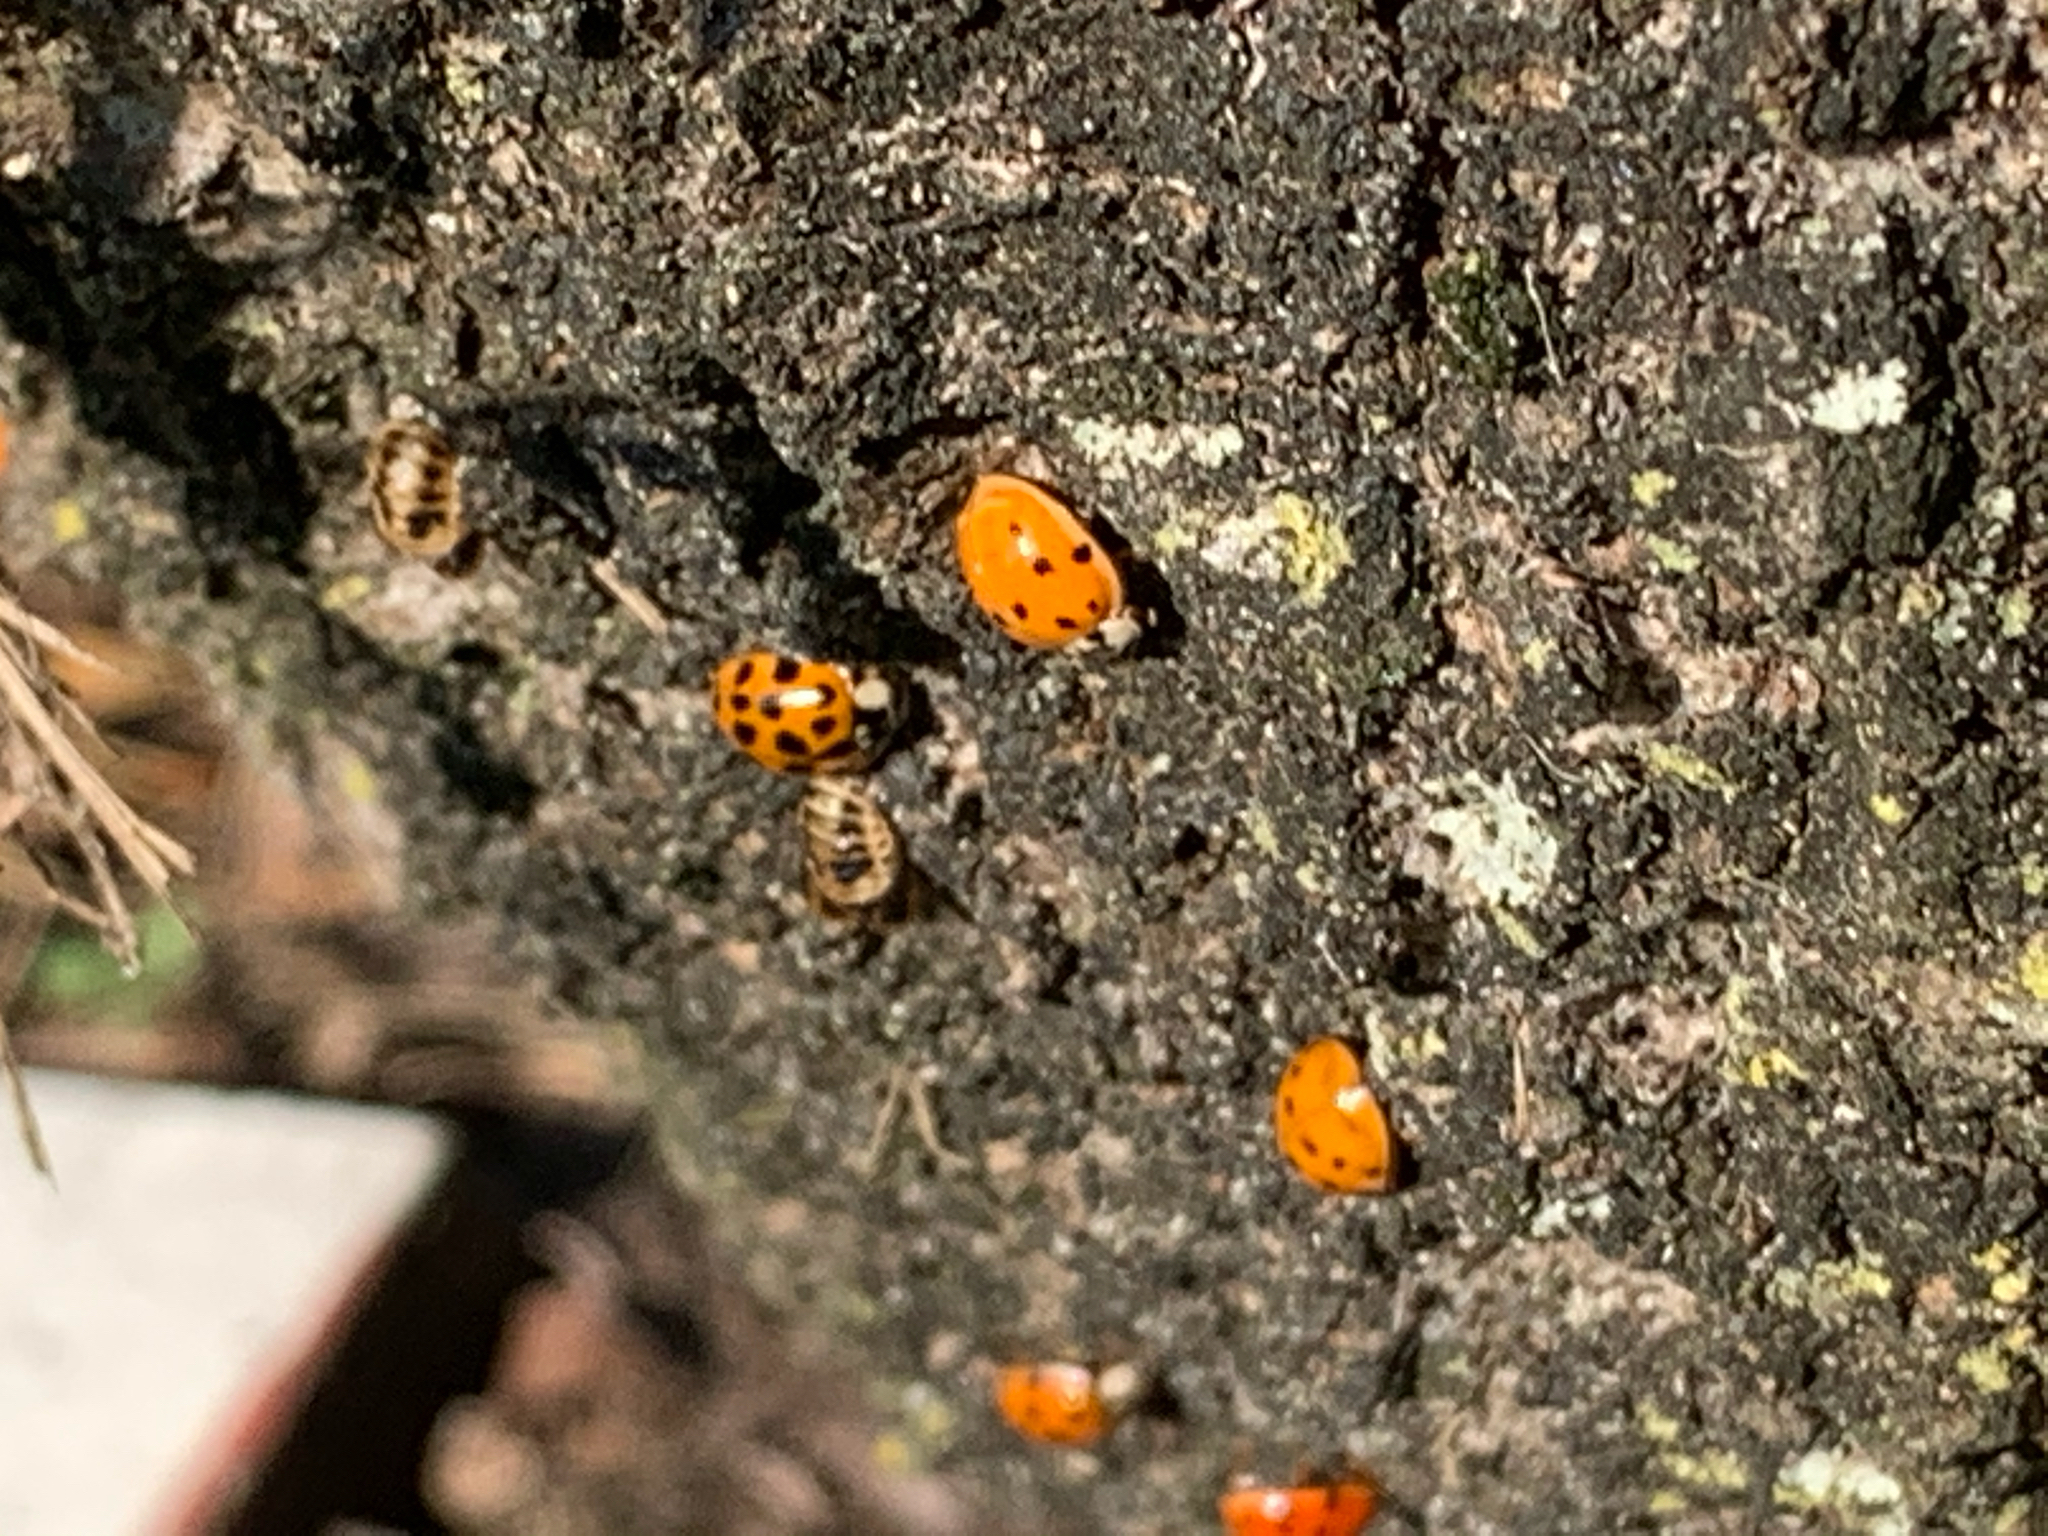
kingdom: Animalia
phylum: Arthropoda
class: Insecta
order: Coleoptera
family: Coccinellidae
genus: Harmonia
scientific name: Harmonia axyridis
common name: Harlequin ladybird
